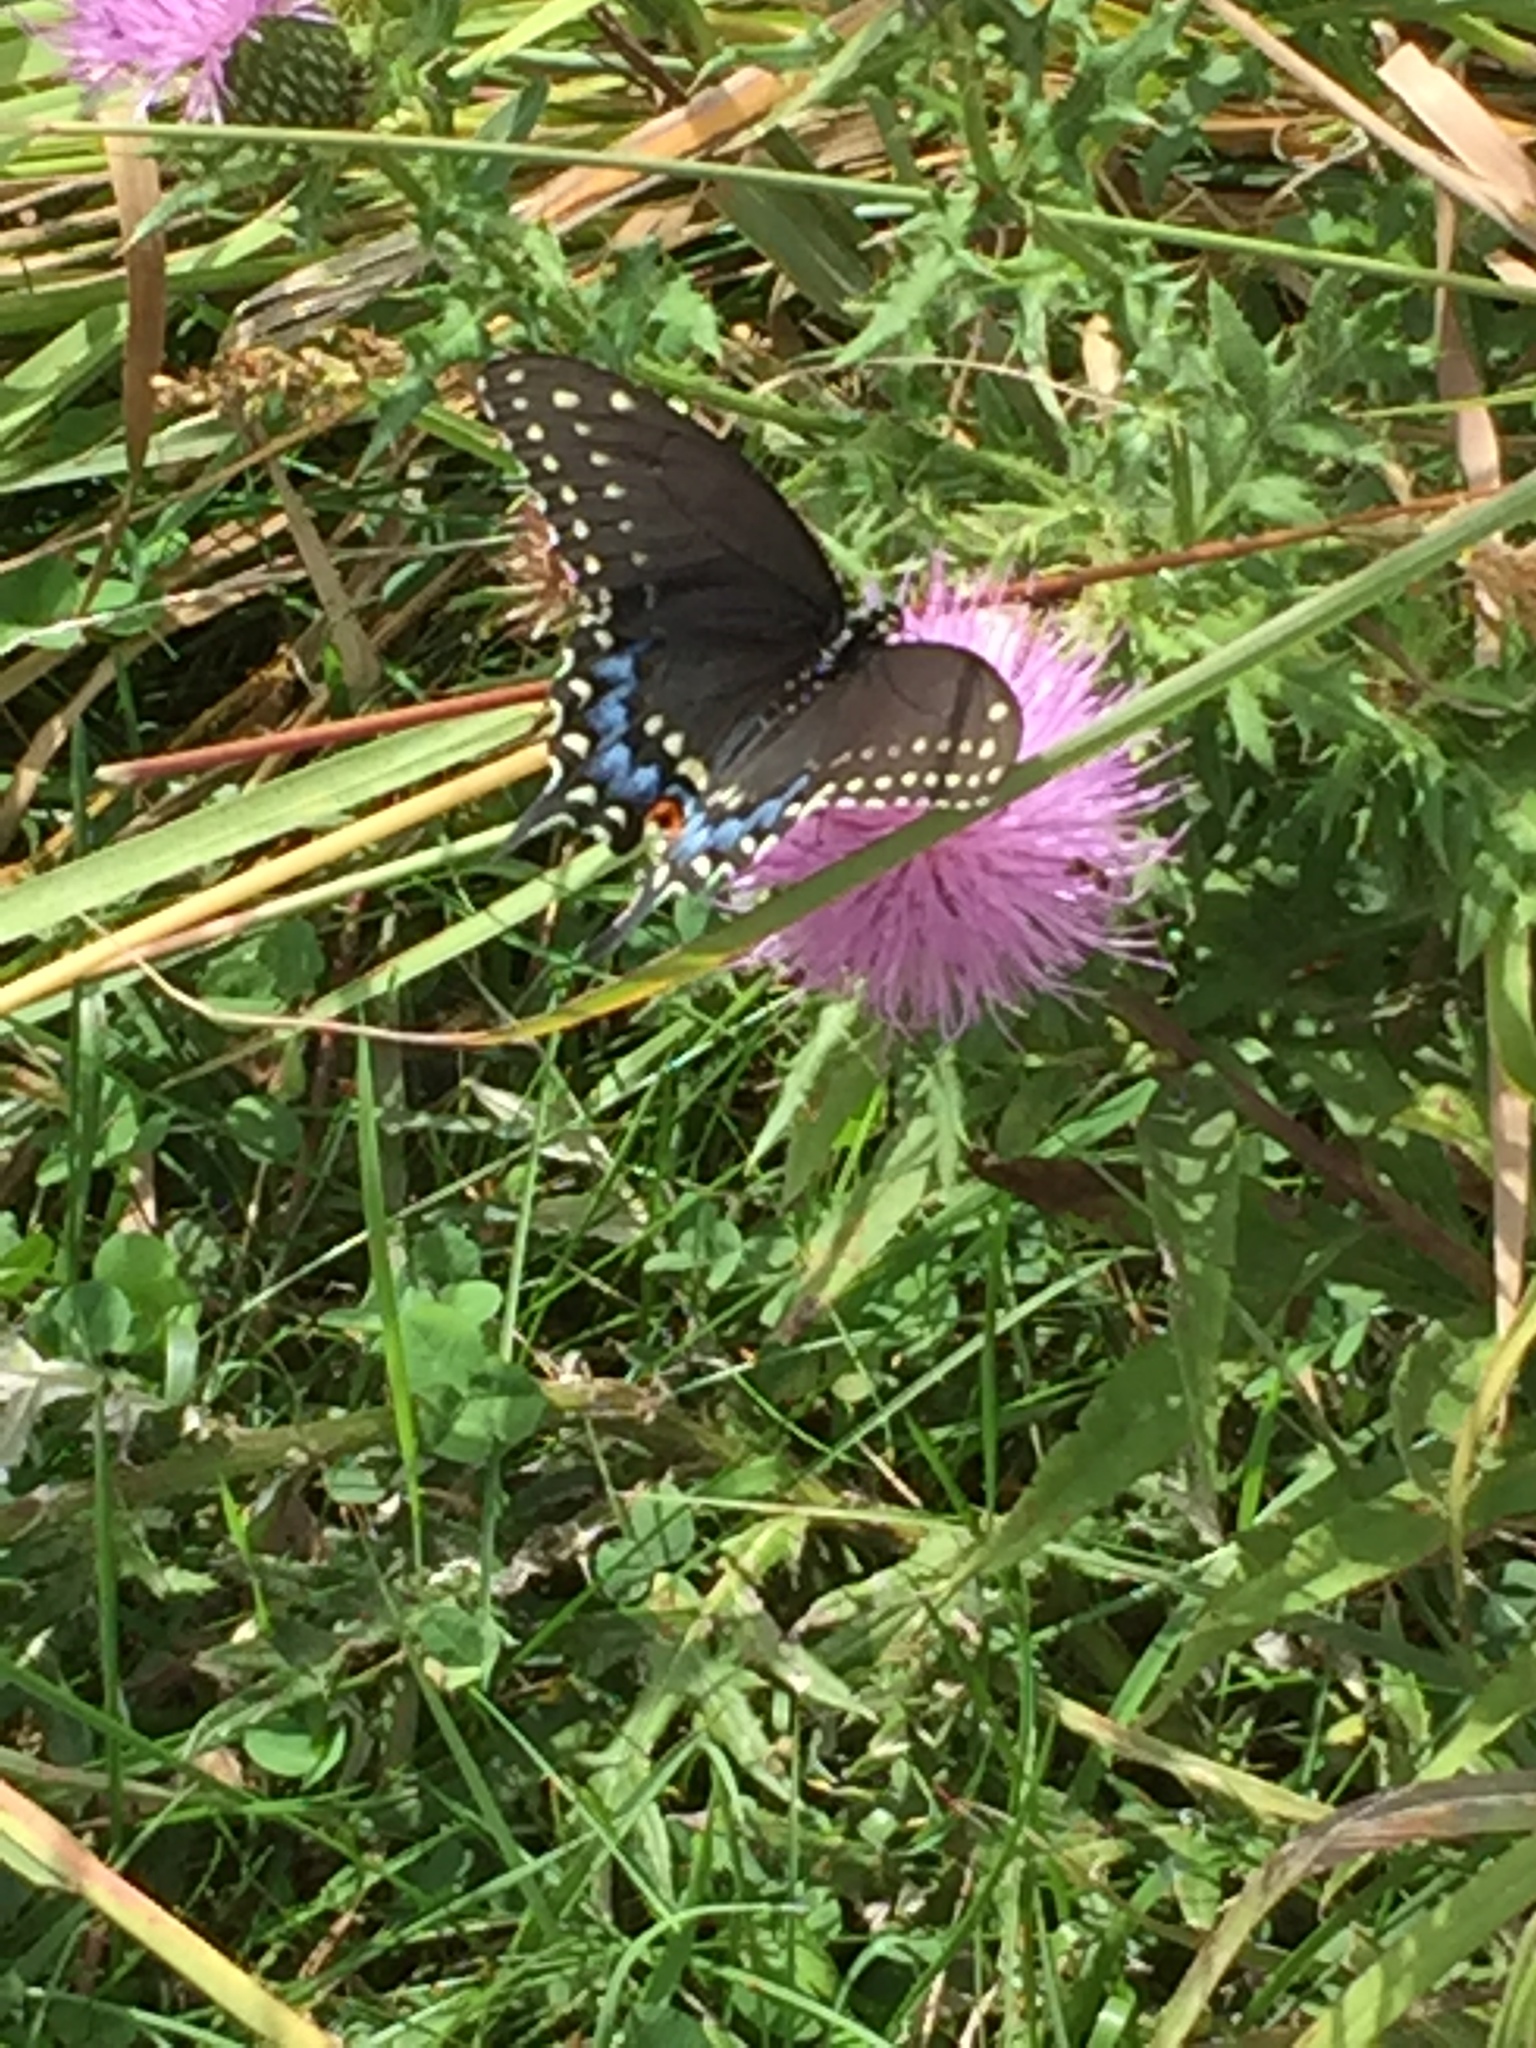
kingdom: Animalia
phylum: Arthropoda
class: Insecta
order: Lepidoptera
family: Papilionidae
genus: Papilio
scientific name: Papilio polyxenes
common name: Black swallowtail
